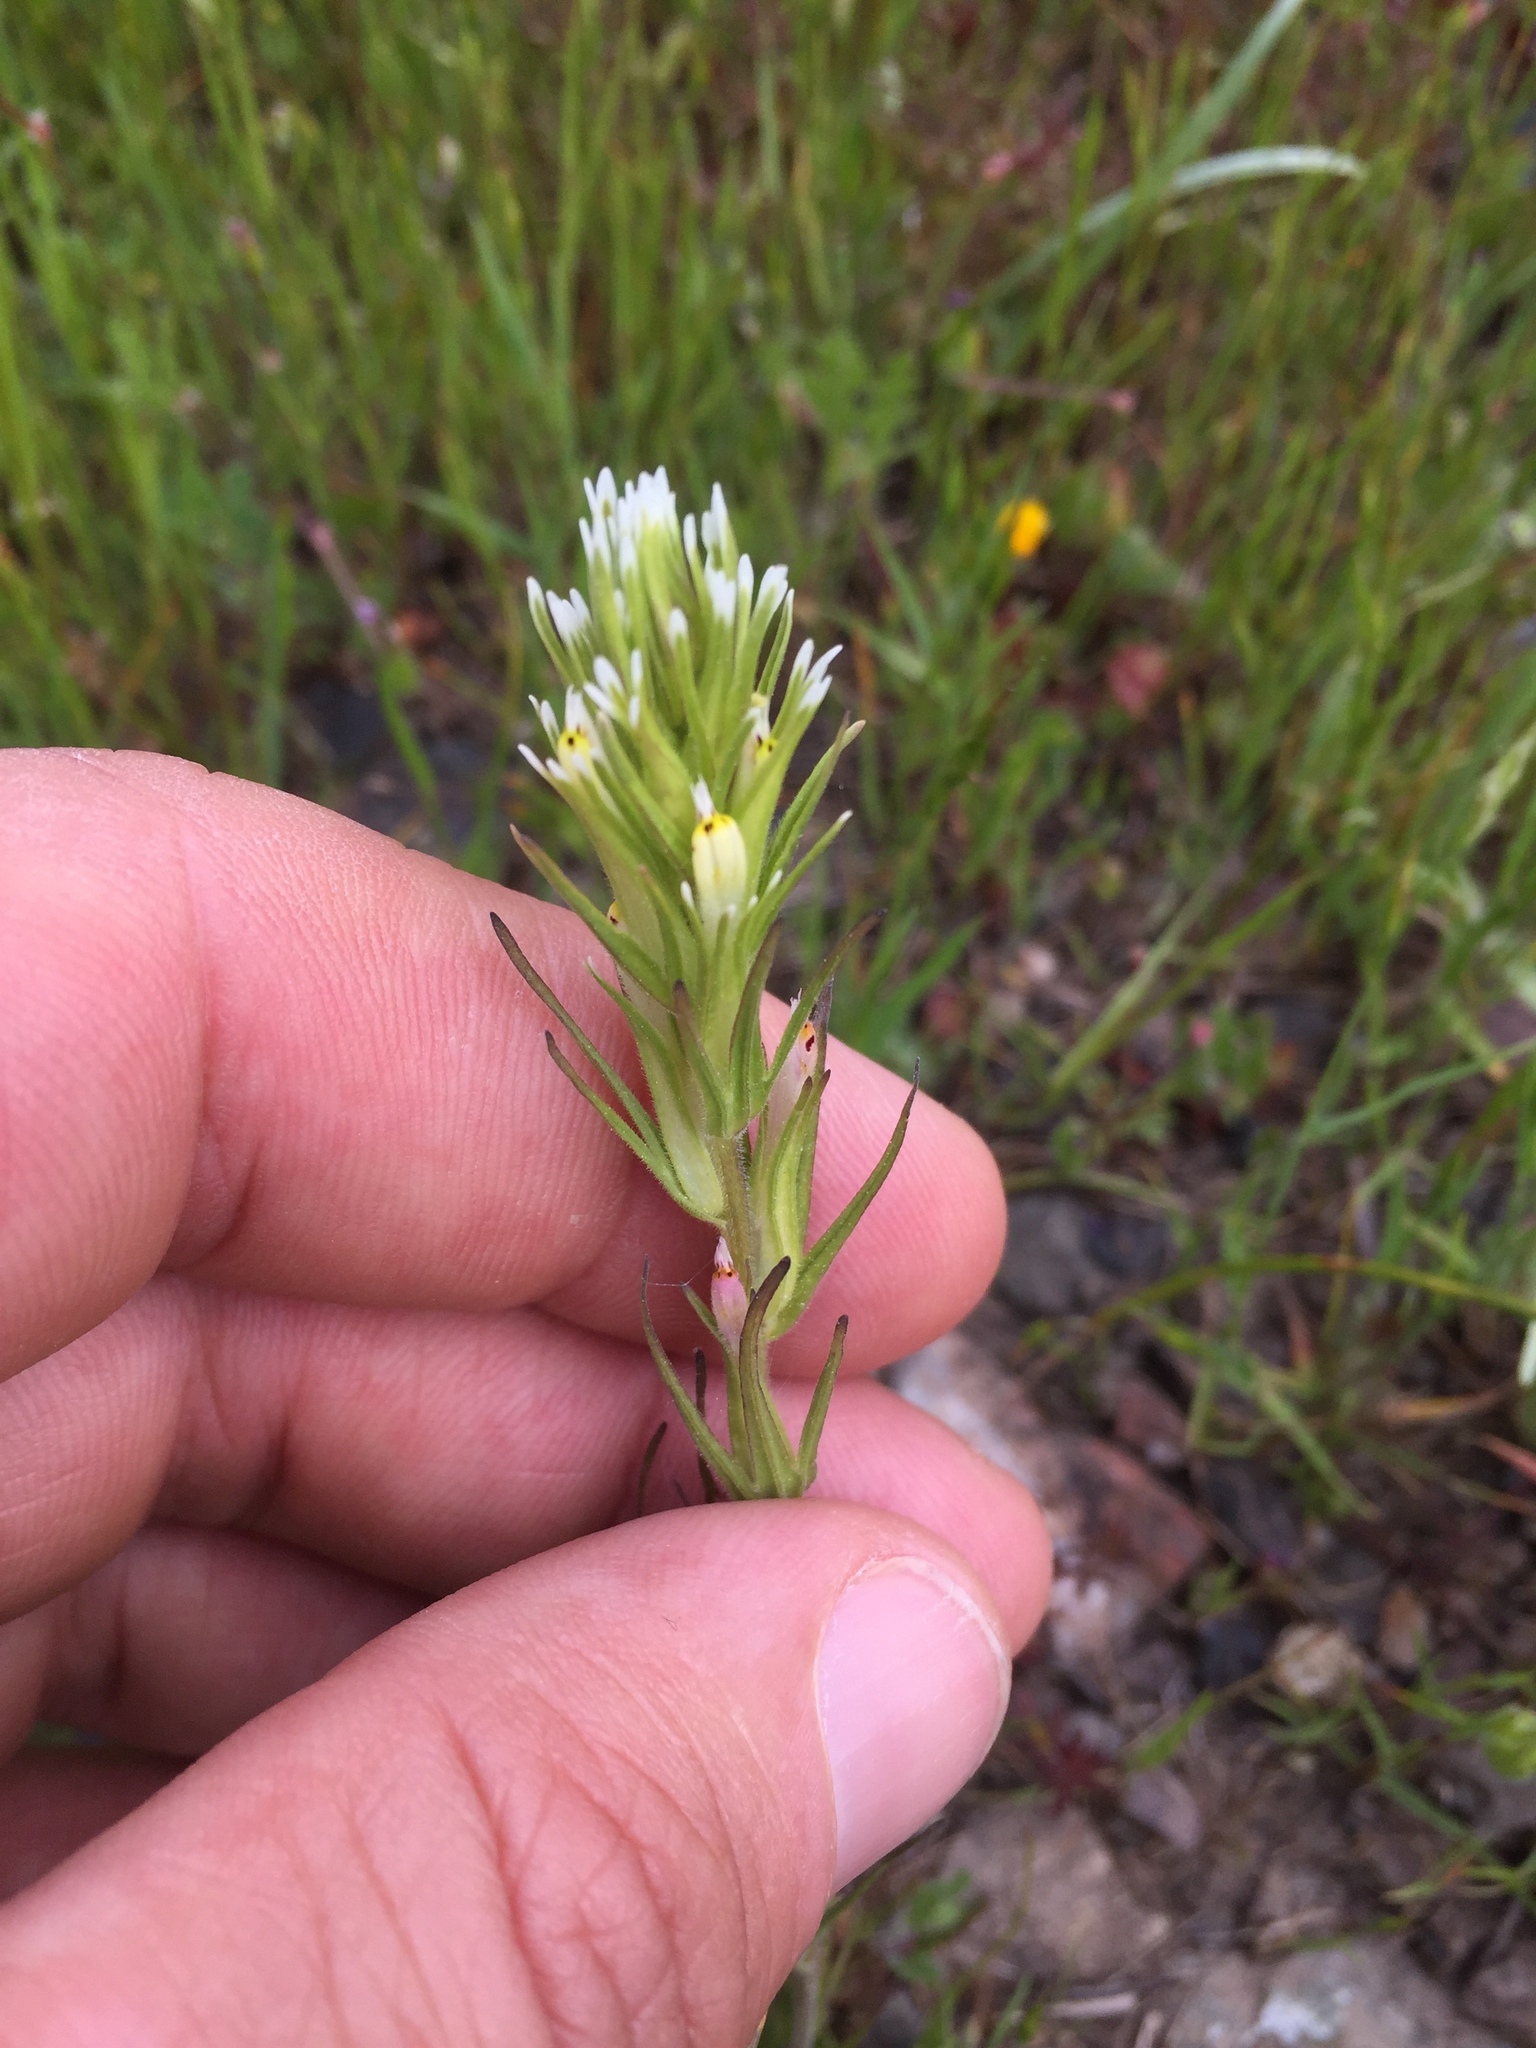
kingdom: Plantae
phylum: Tracheophyta
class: Magnoliopsida
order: Lamiales
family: Orobanchaceae
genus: Castilleja
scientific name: Castilleja attenuata
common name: Valley tassels
